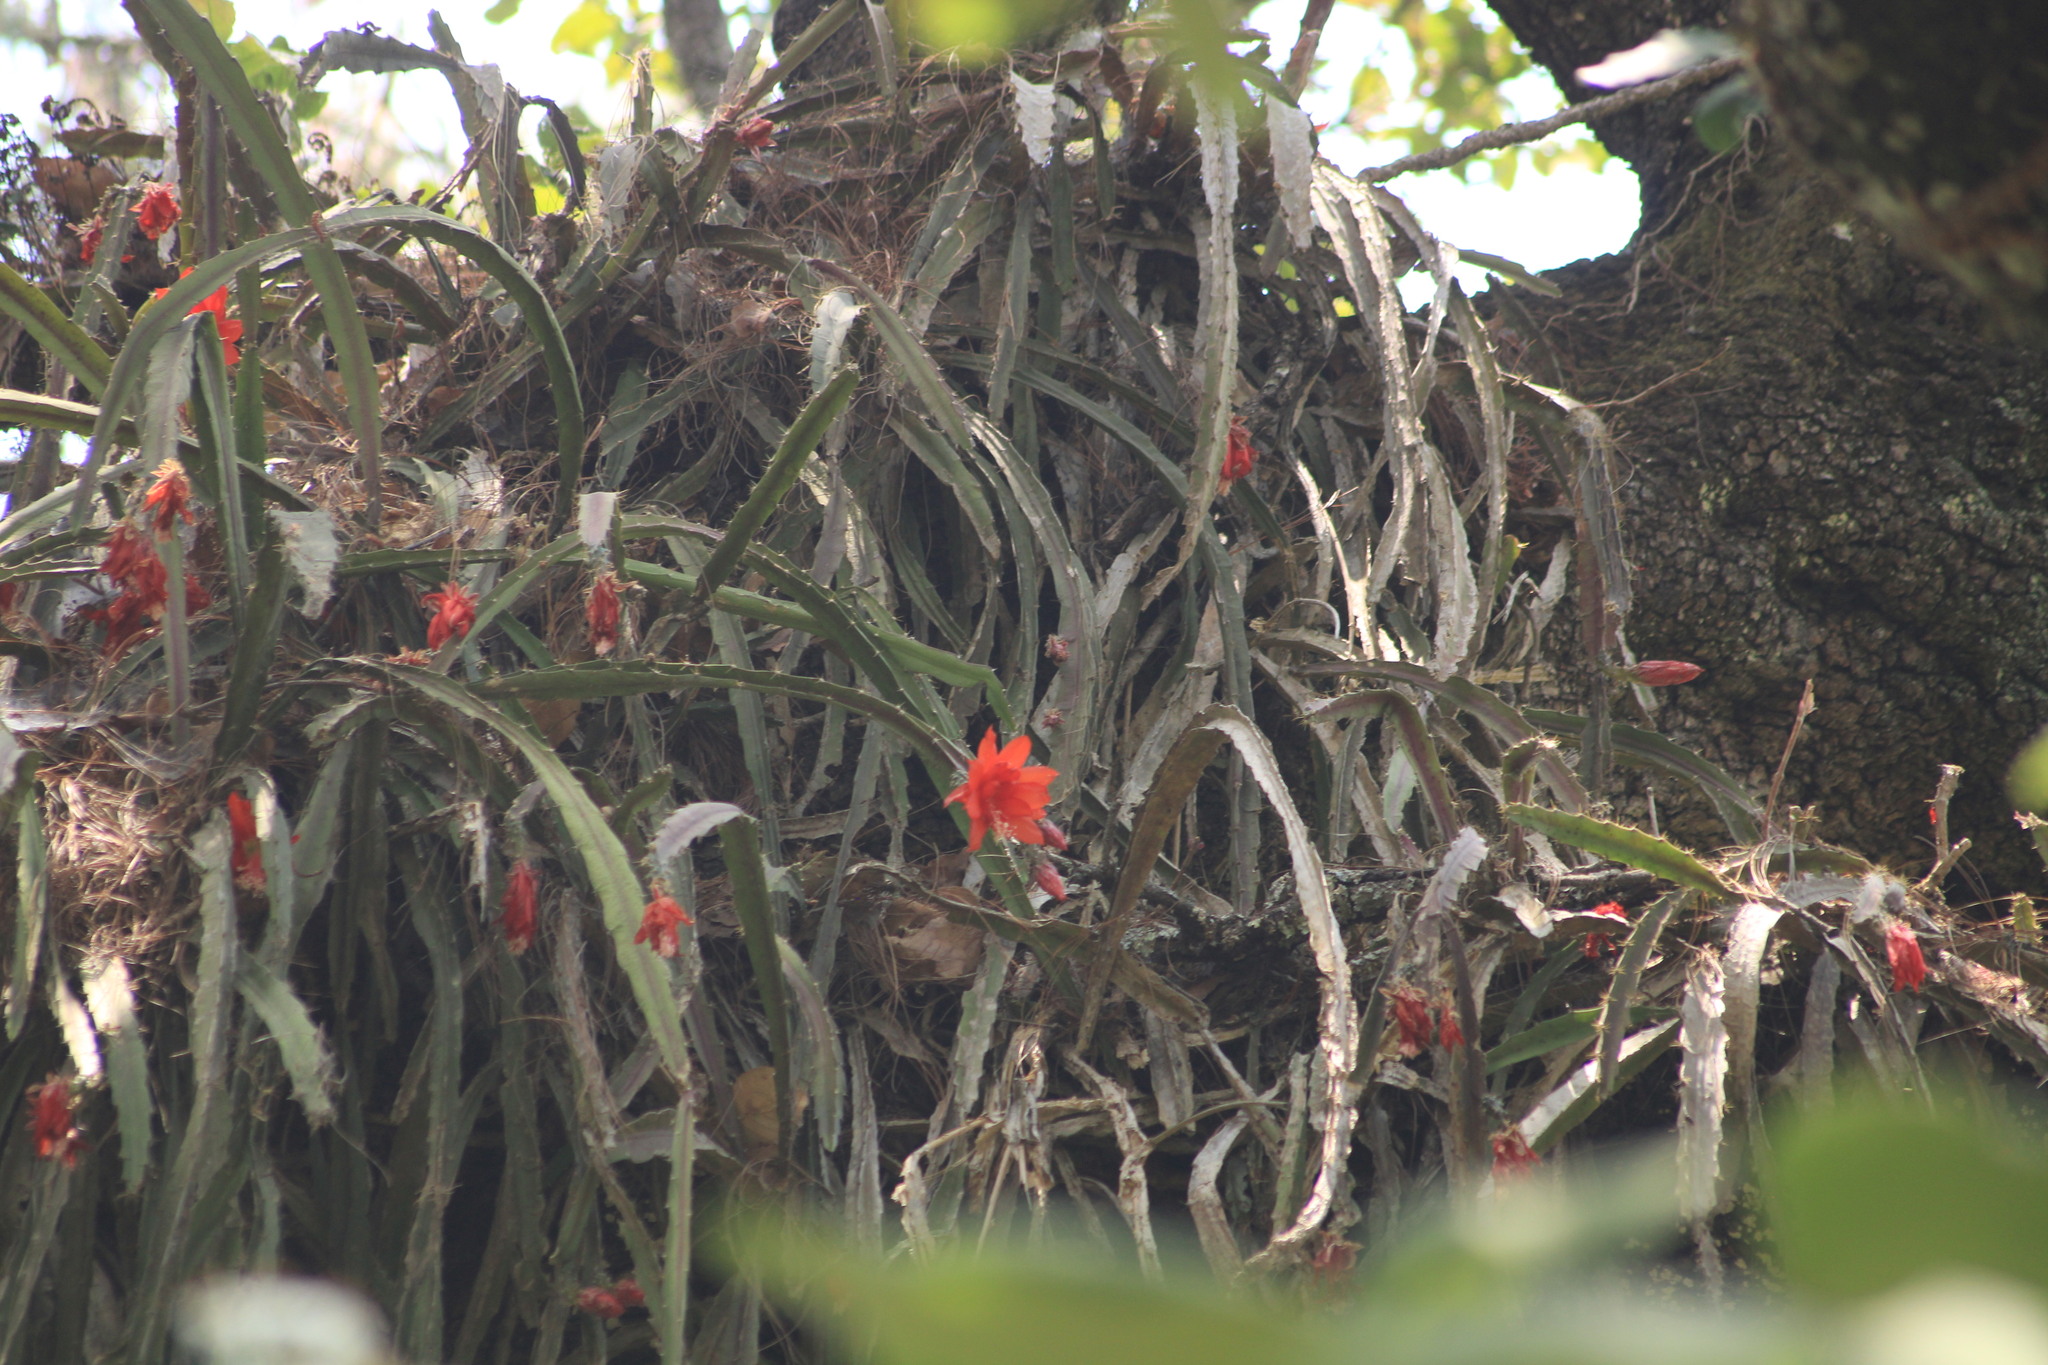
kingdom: Plantae
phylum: Tracheophyta
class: Magnoliopsida
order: Caryophyllales
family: Cactaceae
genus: Disocactus
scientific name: Disocactus speciosus
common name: Sun cereus
